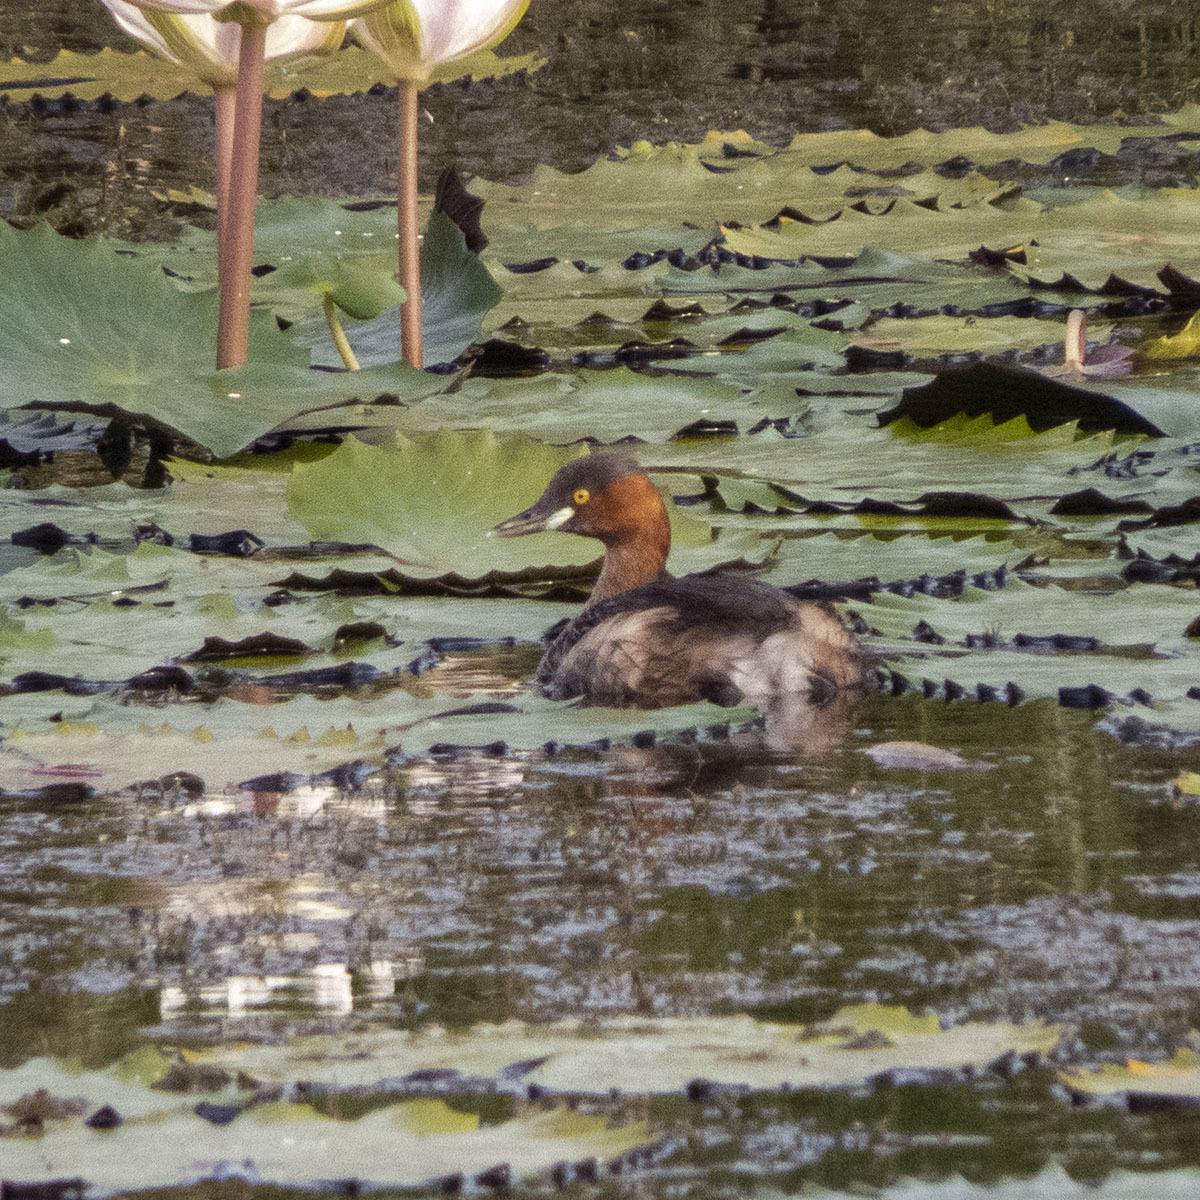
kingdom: Animalia
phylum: Chordata
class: Aves
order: Podicipediformes
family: Podicipedidae
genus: Tachybaptus
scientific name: Tachybaptus ruficollis
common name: Little grebe
